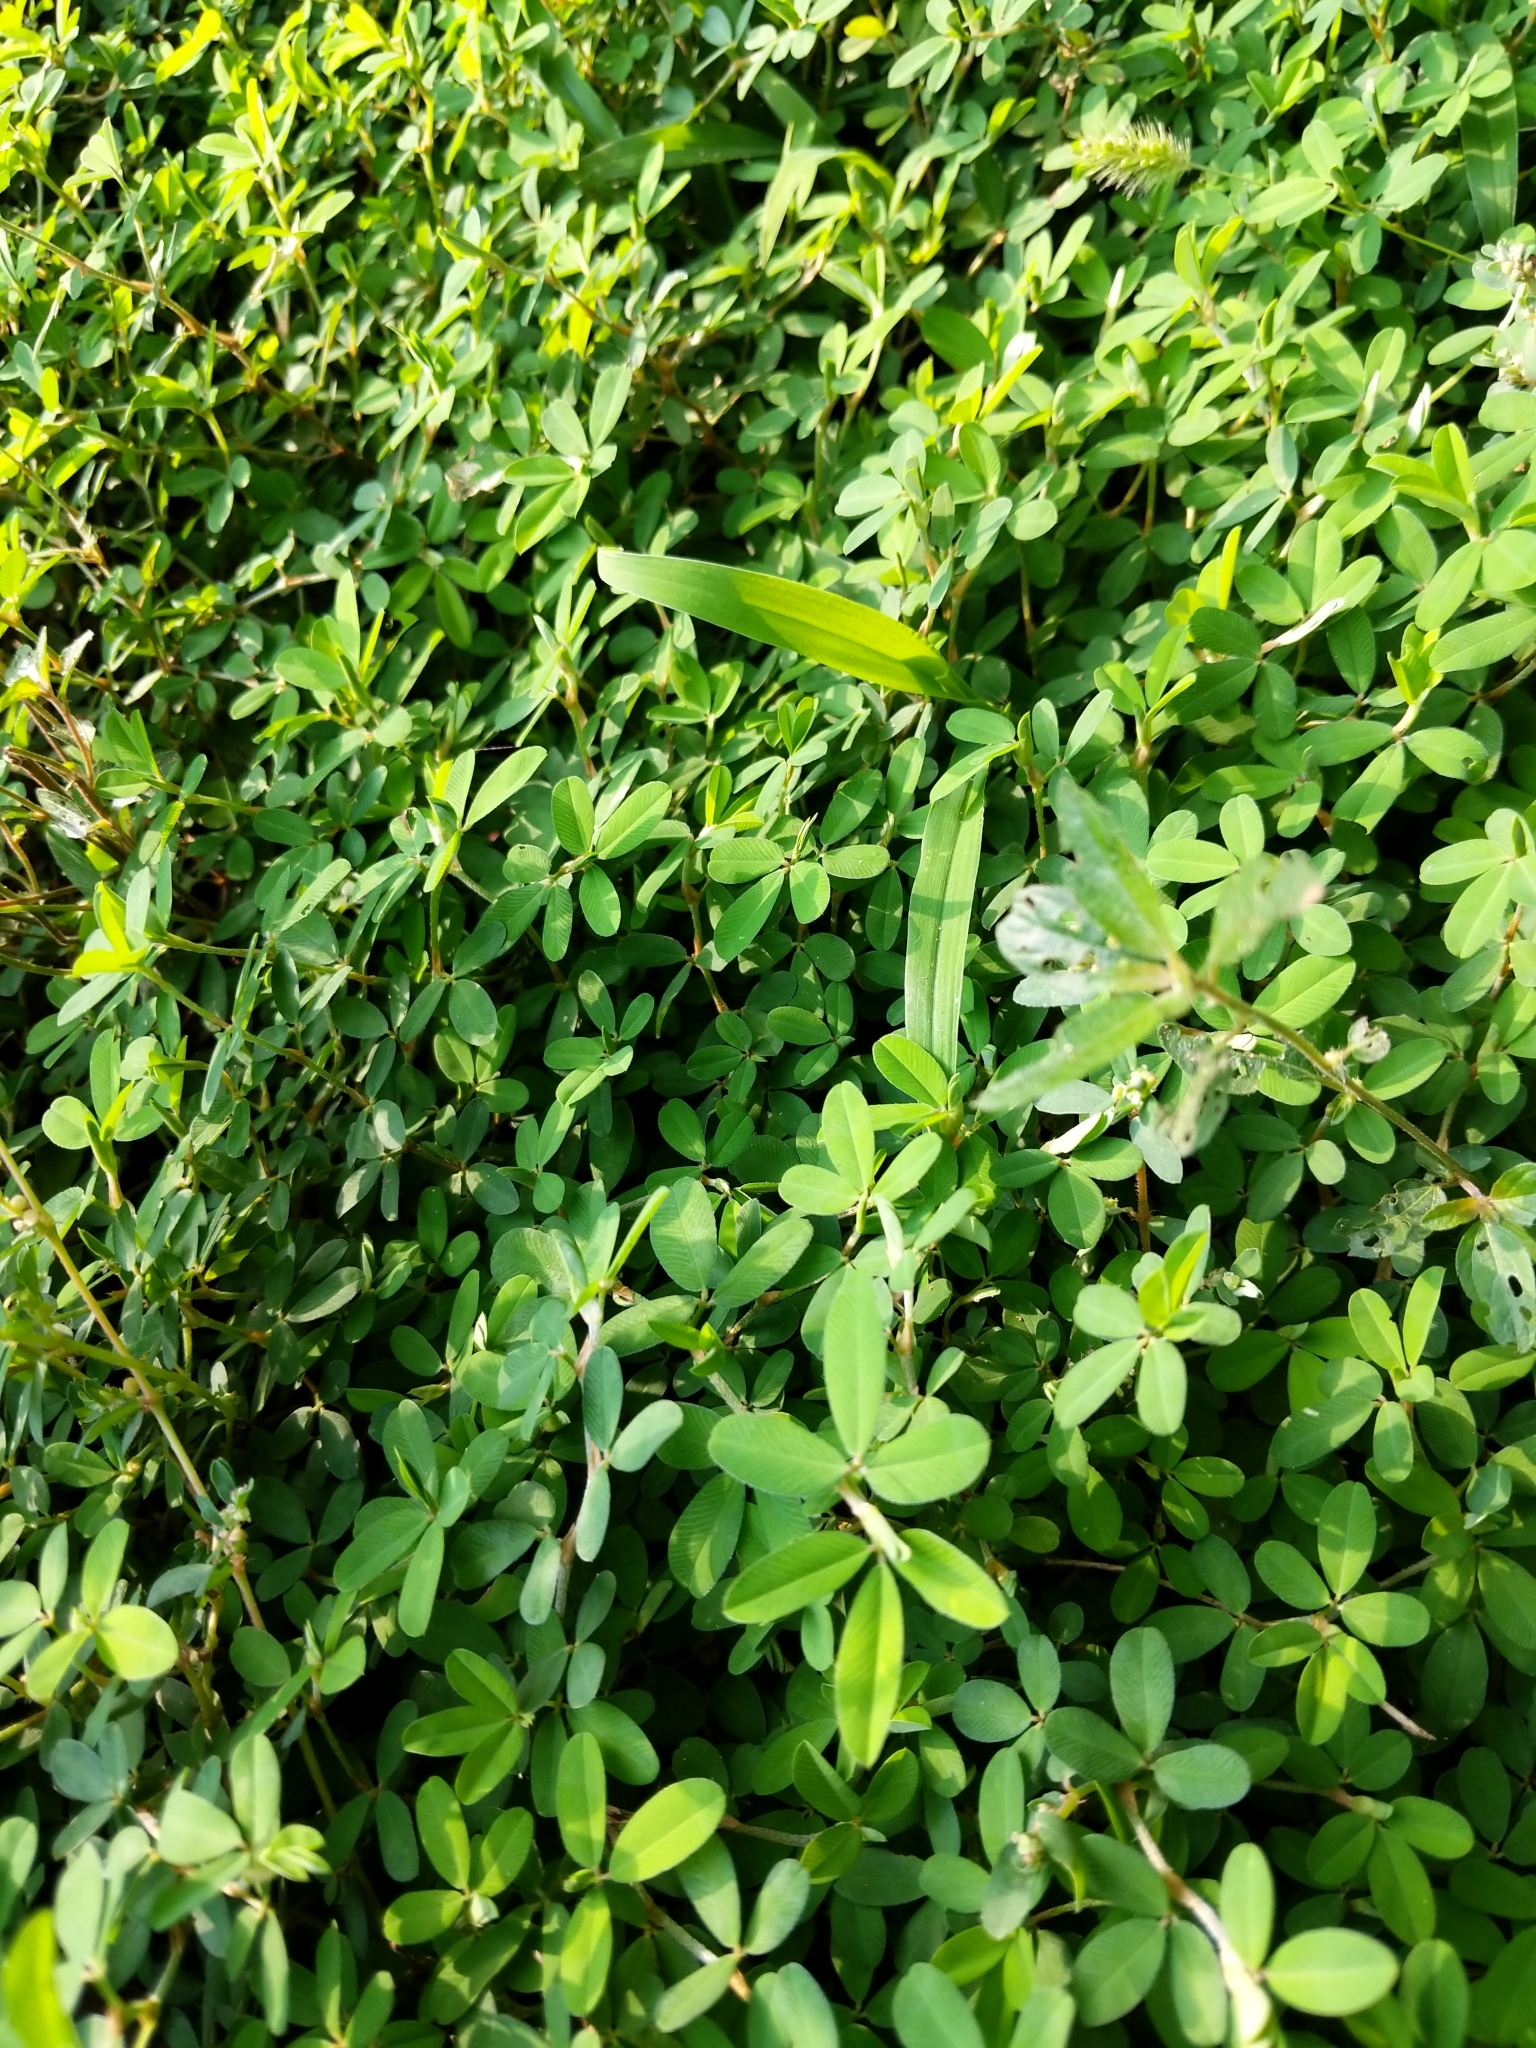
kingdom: Plantae
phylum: Tracheophyta
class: Magnoliopsida
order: Fabales
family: Fabaceae
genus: Kummerowia
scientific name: Kummerowia striata
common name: Japanese clover
